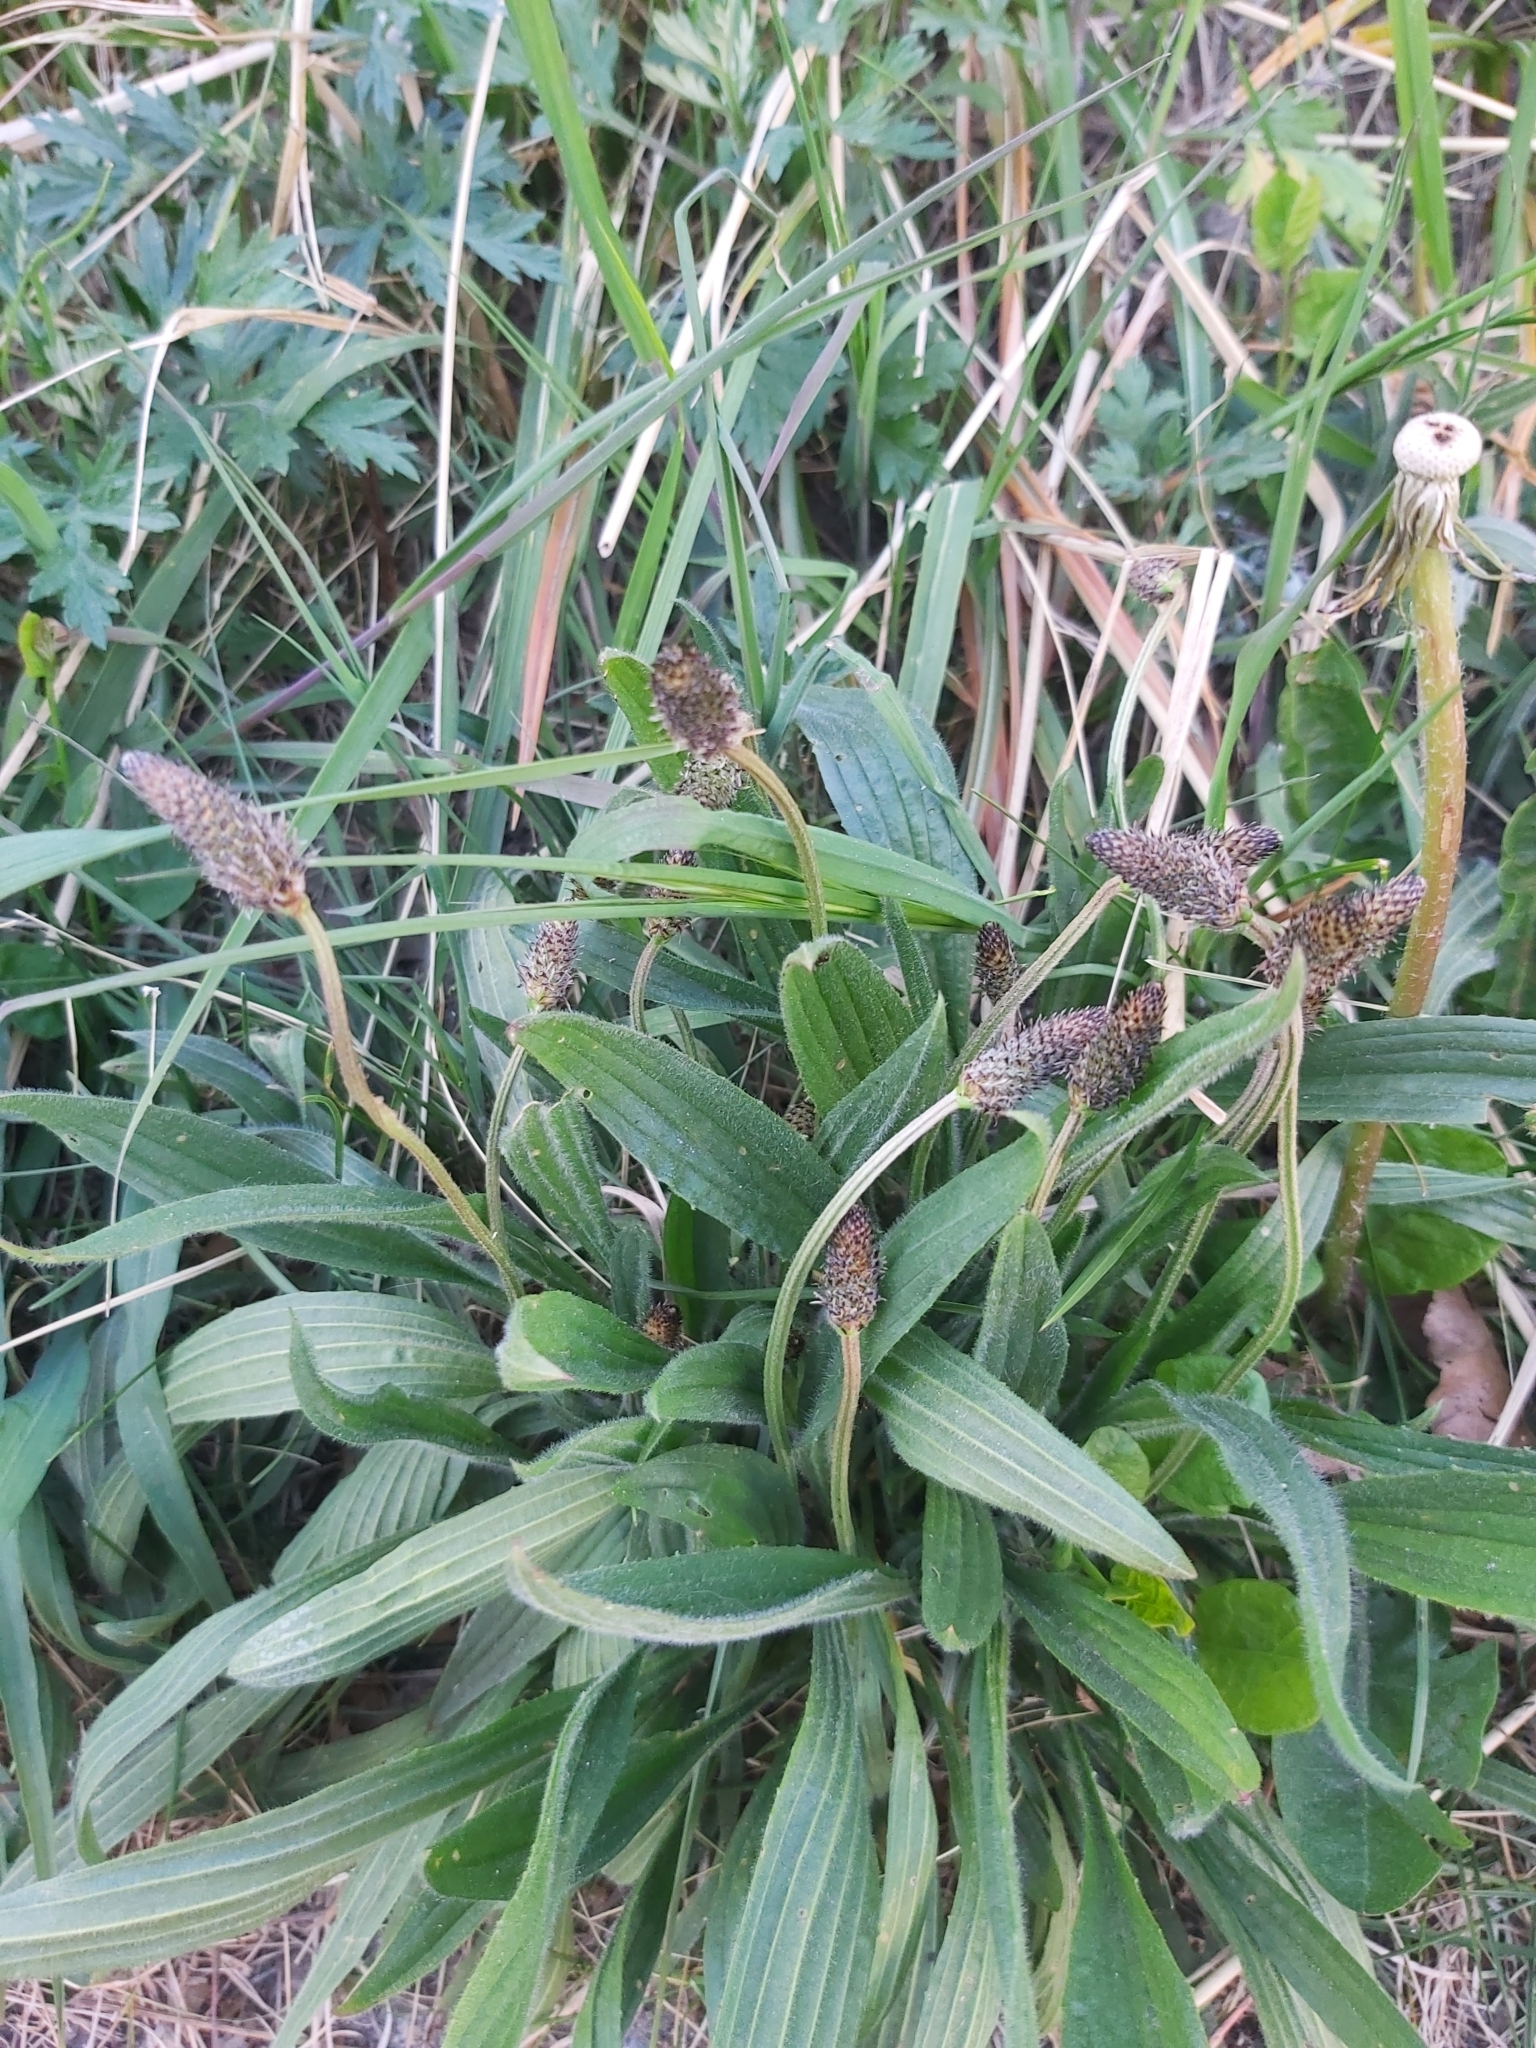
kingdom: Plantae
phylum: Tracheophyta
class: Magnoliopsida
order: Lamiales
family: Plantaginaceae
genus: Plantago
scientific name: Plantago lanceolata
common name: Ribwort plantain
